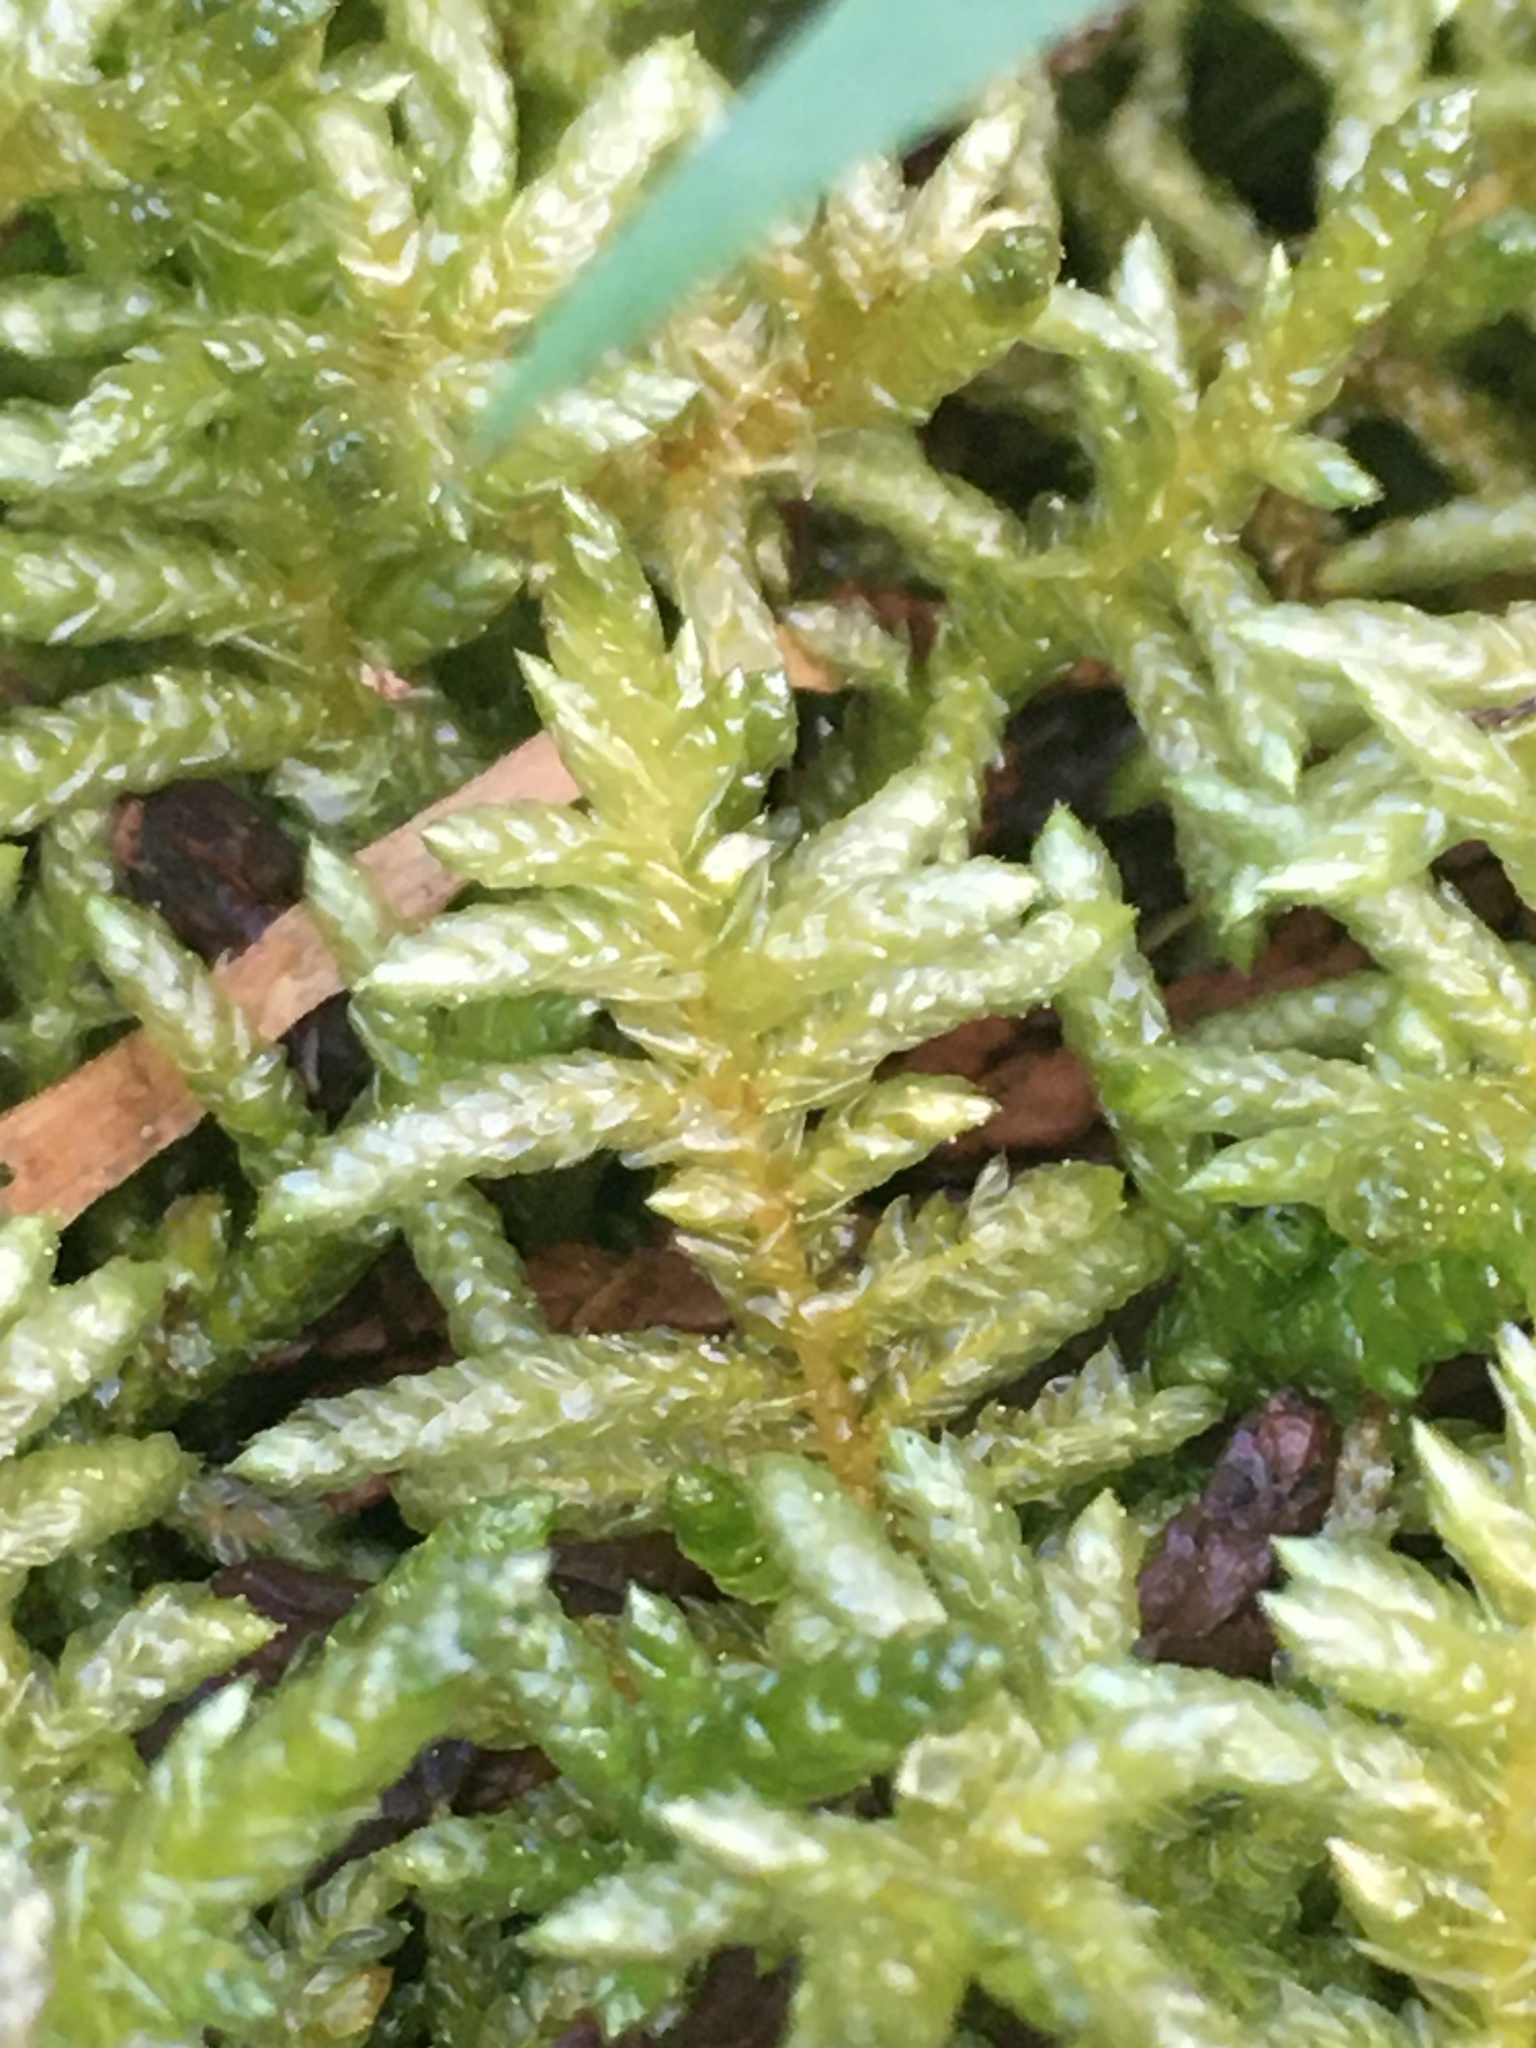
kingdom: Plantae
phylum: Bryophyta
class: Bryopsida
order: Hypnales
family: Brachytheciaceae
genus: Pseudoscleropodium
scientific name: Pseudoscleropodium purum
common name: Neat feather-moss
